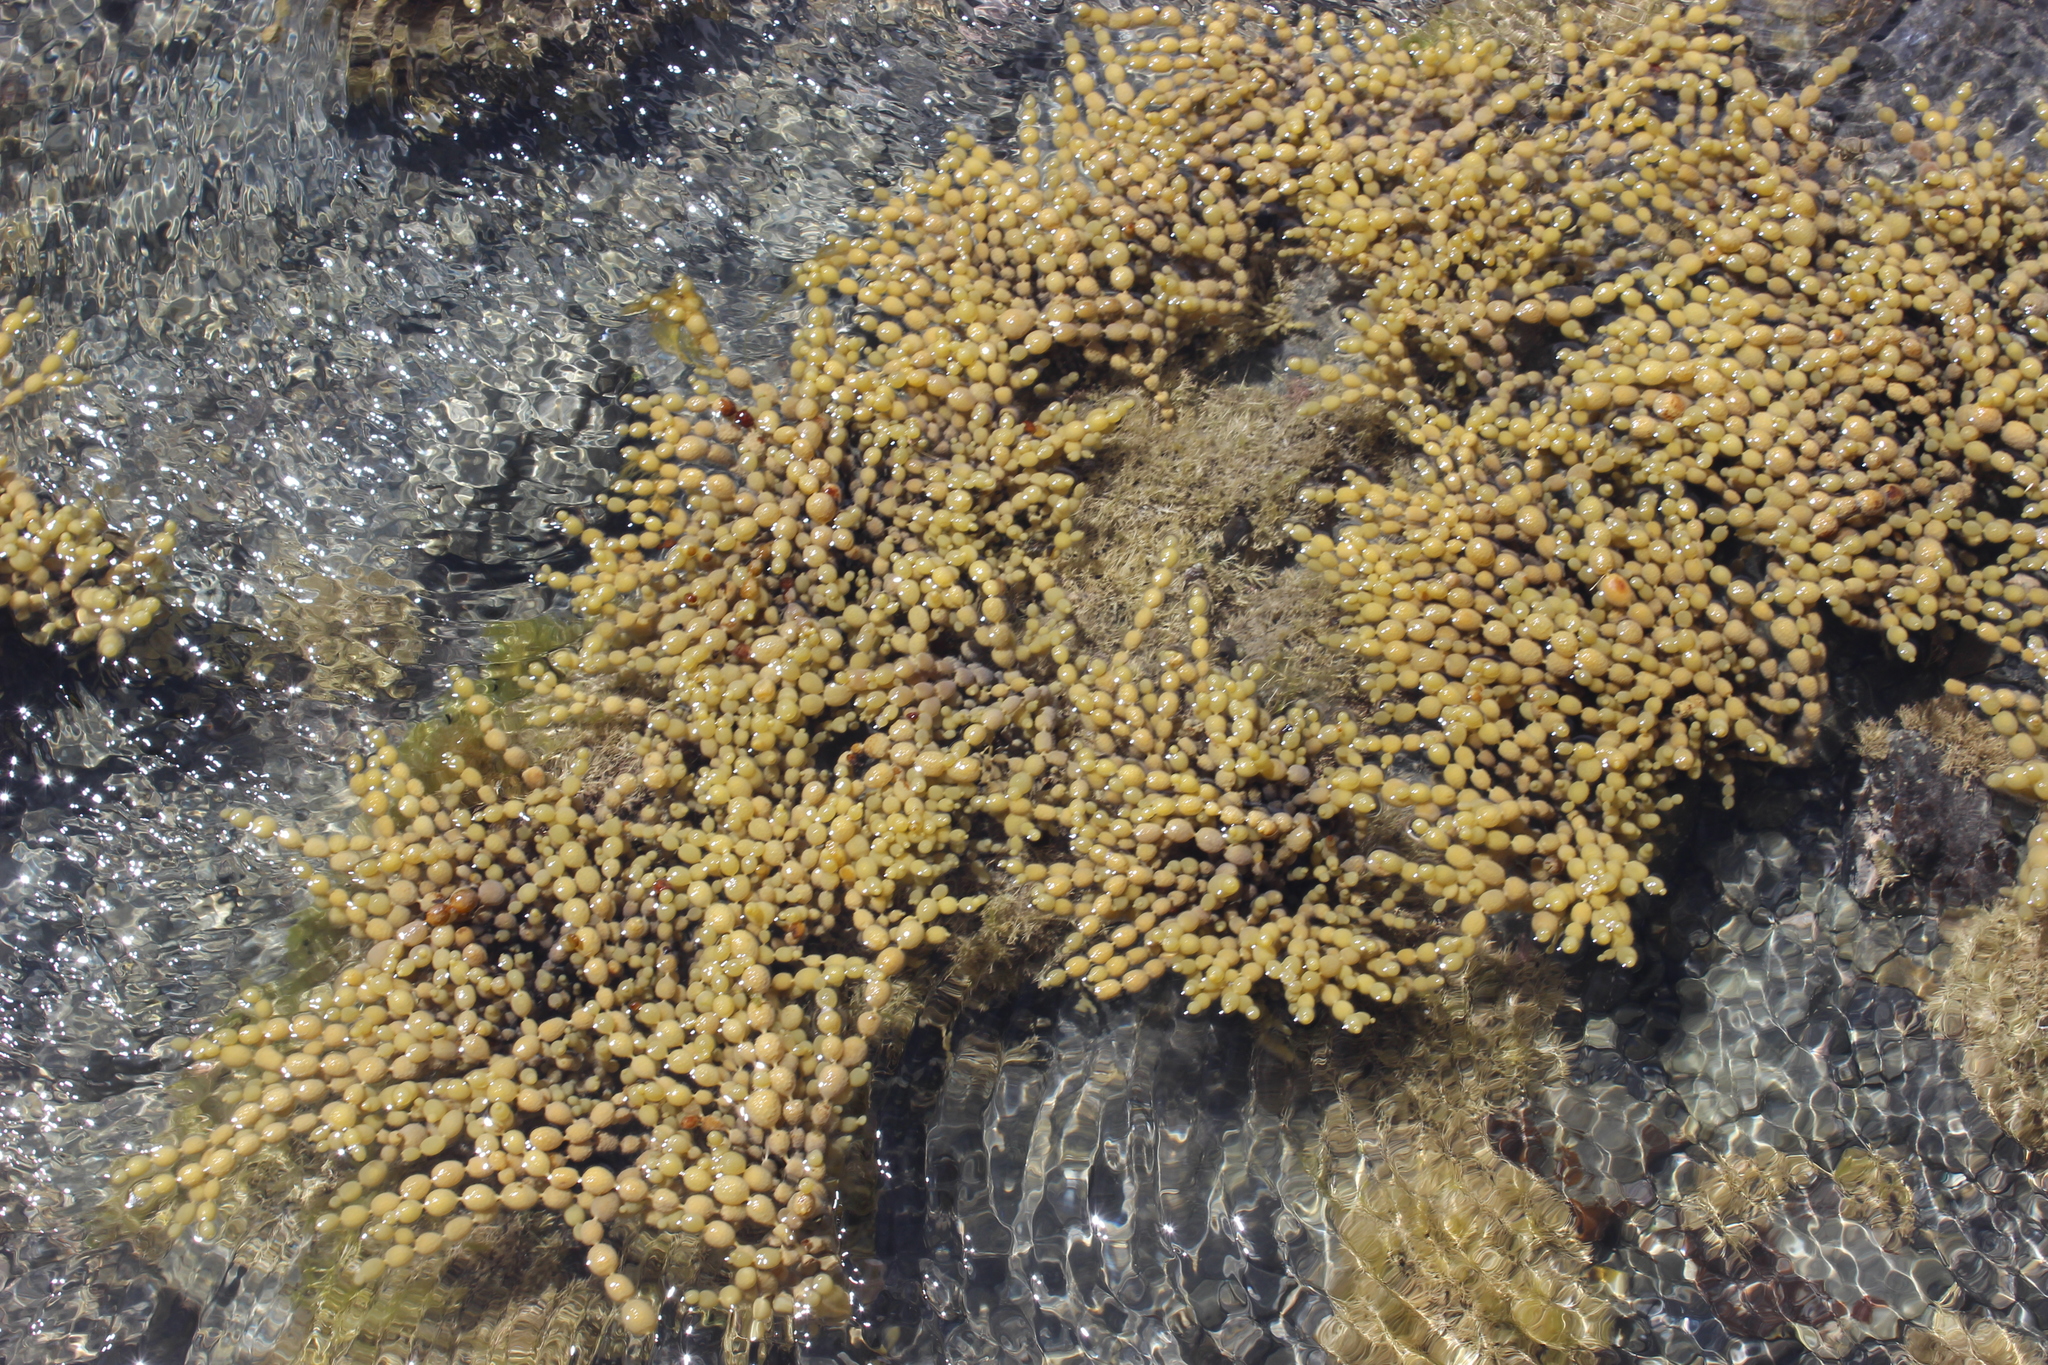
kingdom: Chromista
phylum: Ochrophyta
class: Phaeophyceae
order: Fucales
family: Hormosiraceae
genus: Hormosira
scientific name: Hormosira banksii
